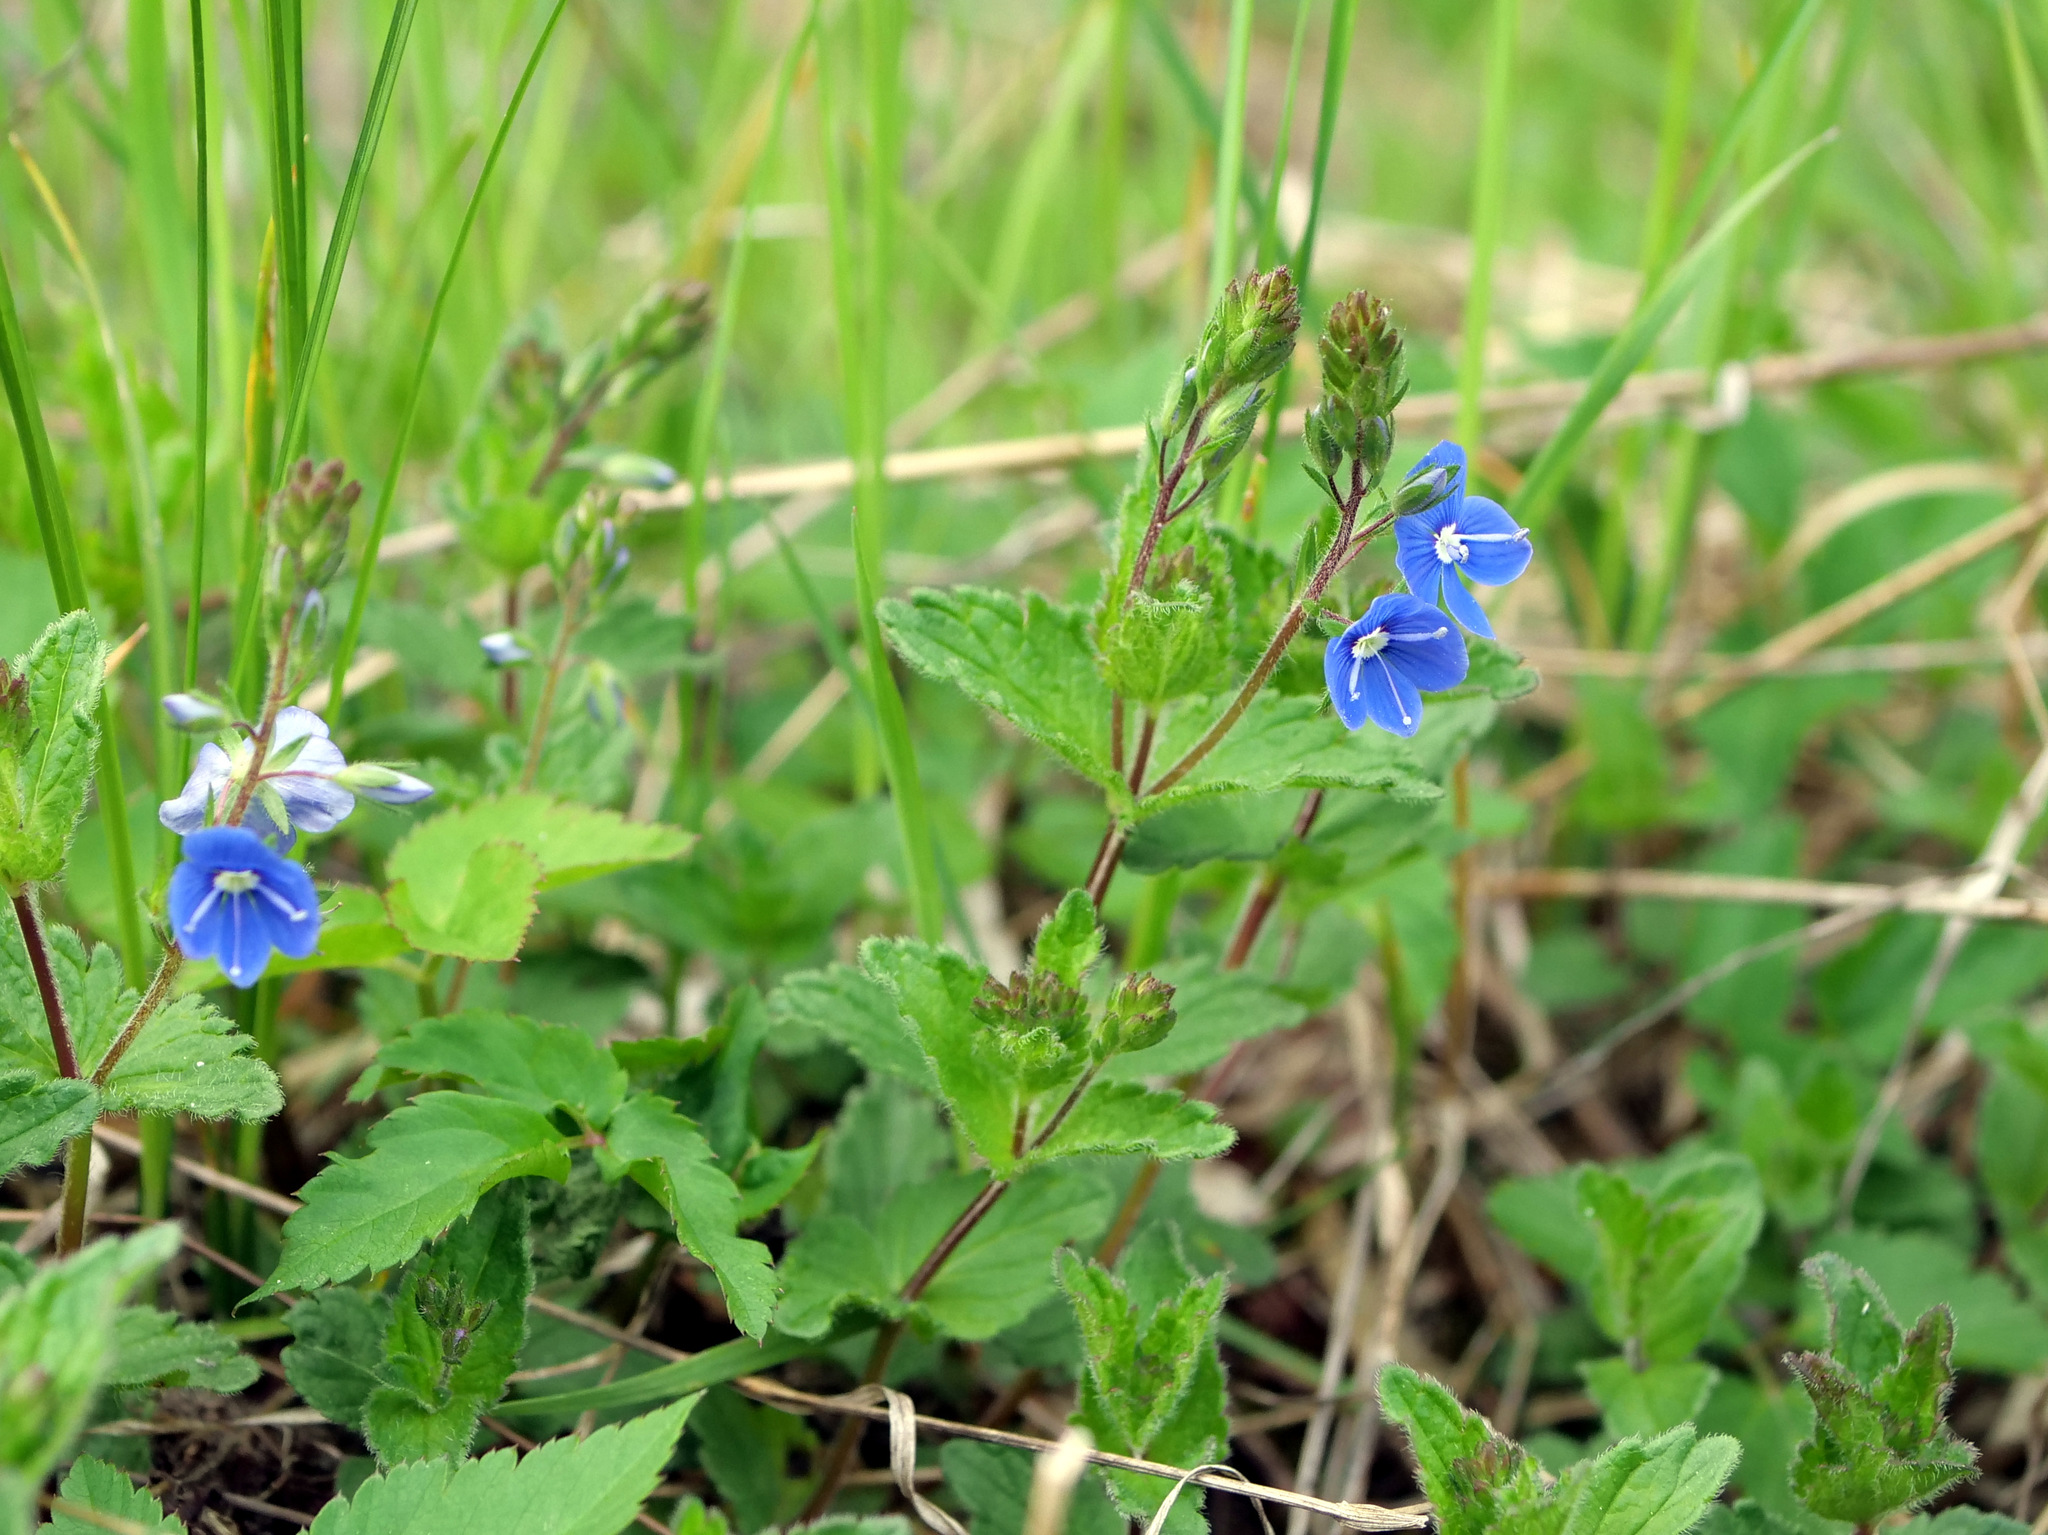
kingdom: Plantae
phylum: Tracheophyta
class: Magnoliopsida
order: Lamiales
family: Plantaginaceae
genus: Veronica
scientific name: Veronica chamaedrys
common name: Germander speedwell
